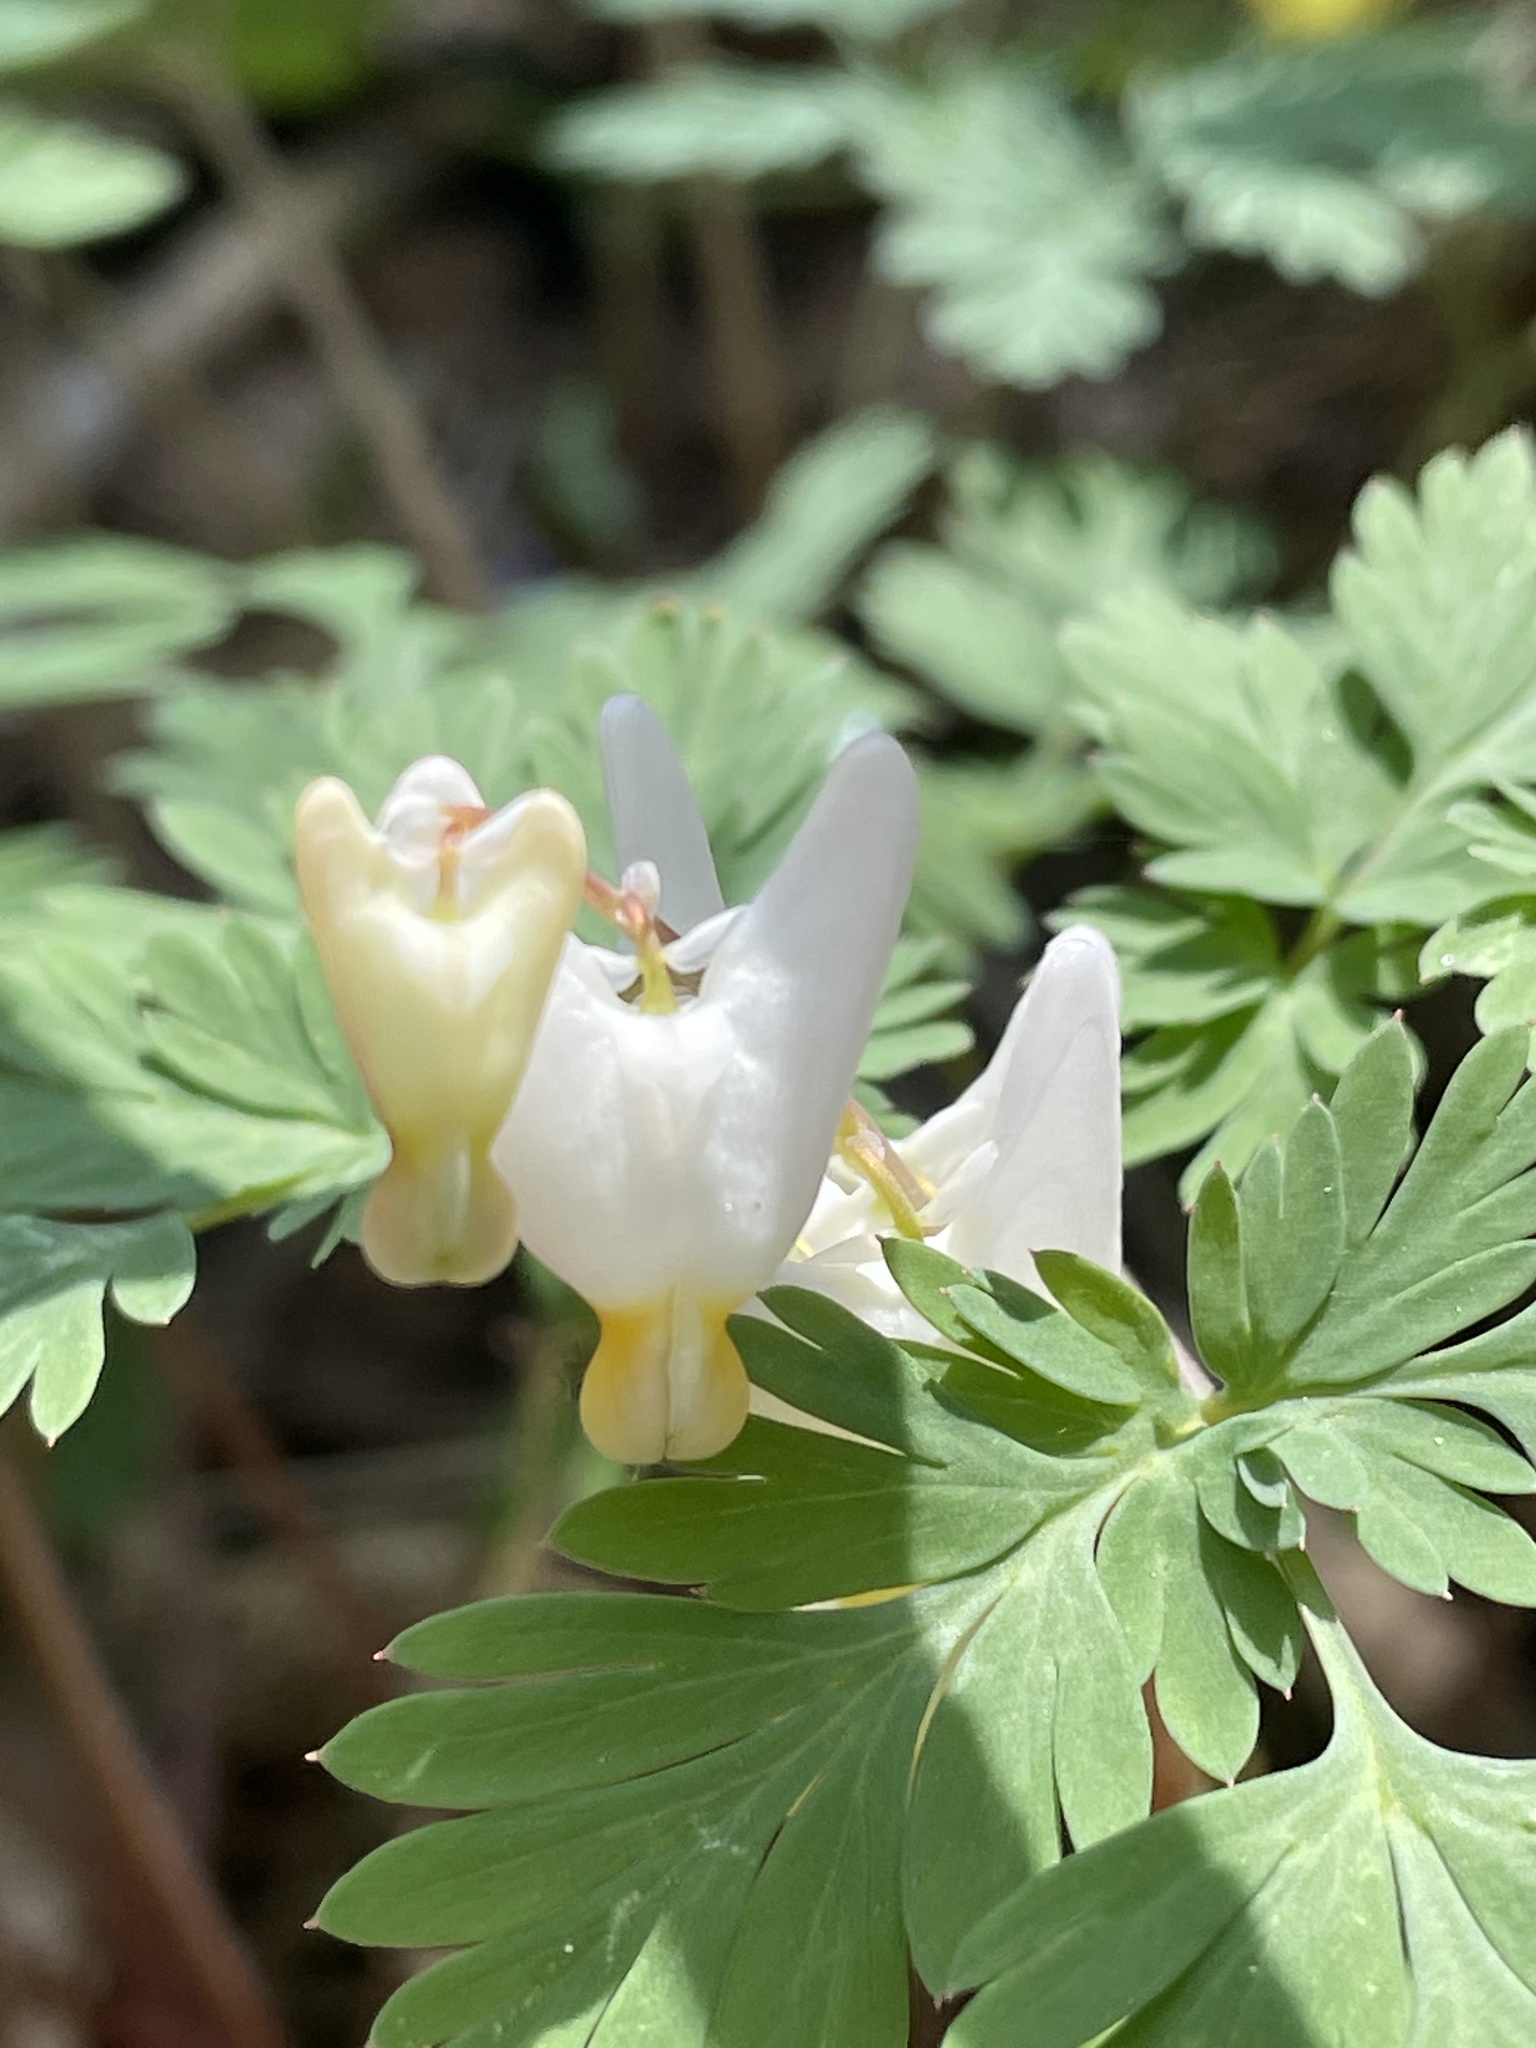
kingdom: Plantae
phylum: Tracheophyta
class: Magnoliopsida
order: Ranunculales
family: Papaveraceae
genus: Dicentra
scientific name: Dicentra cucullaria
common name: Dutchman's breeches
